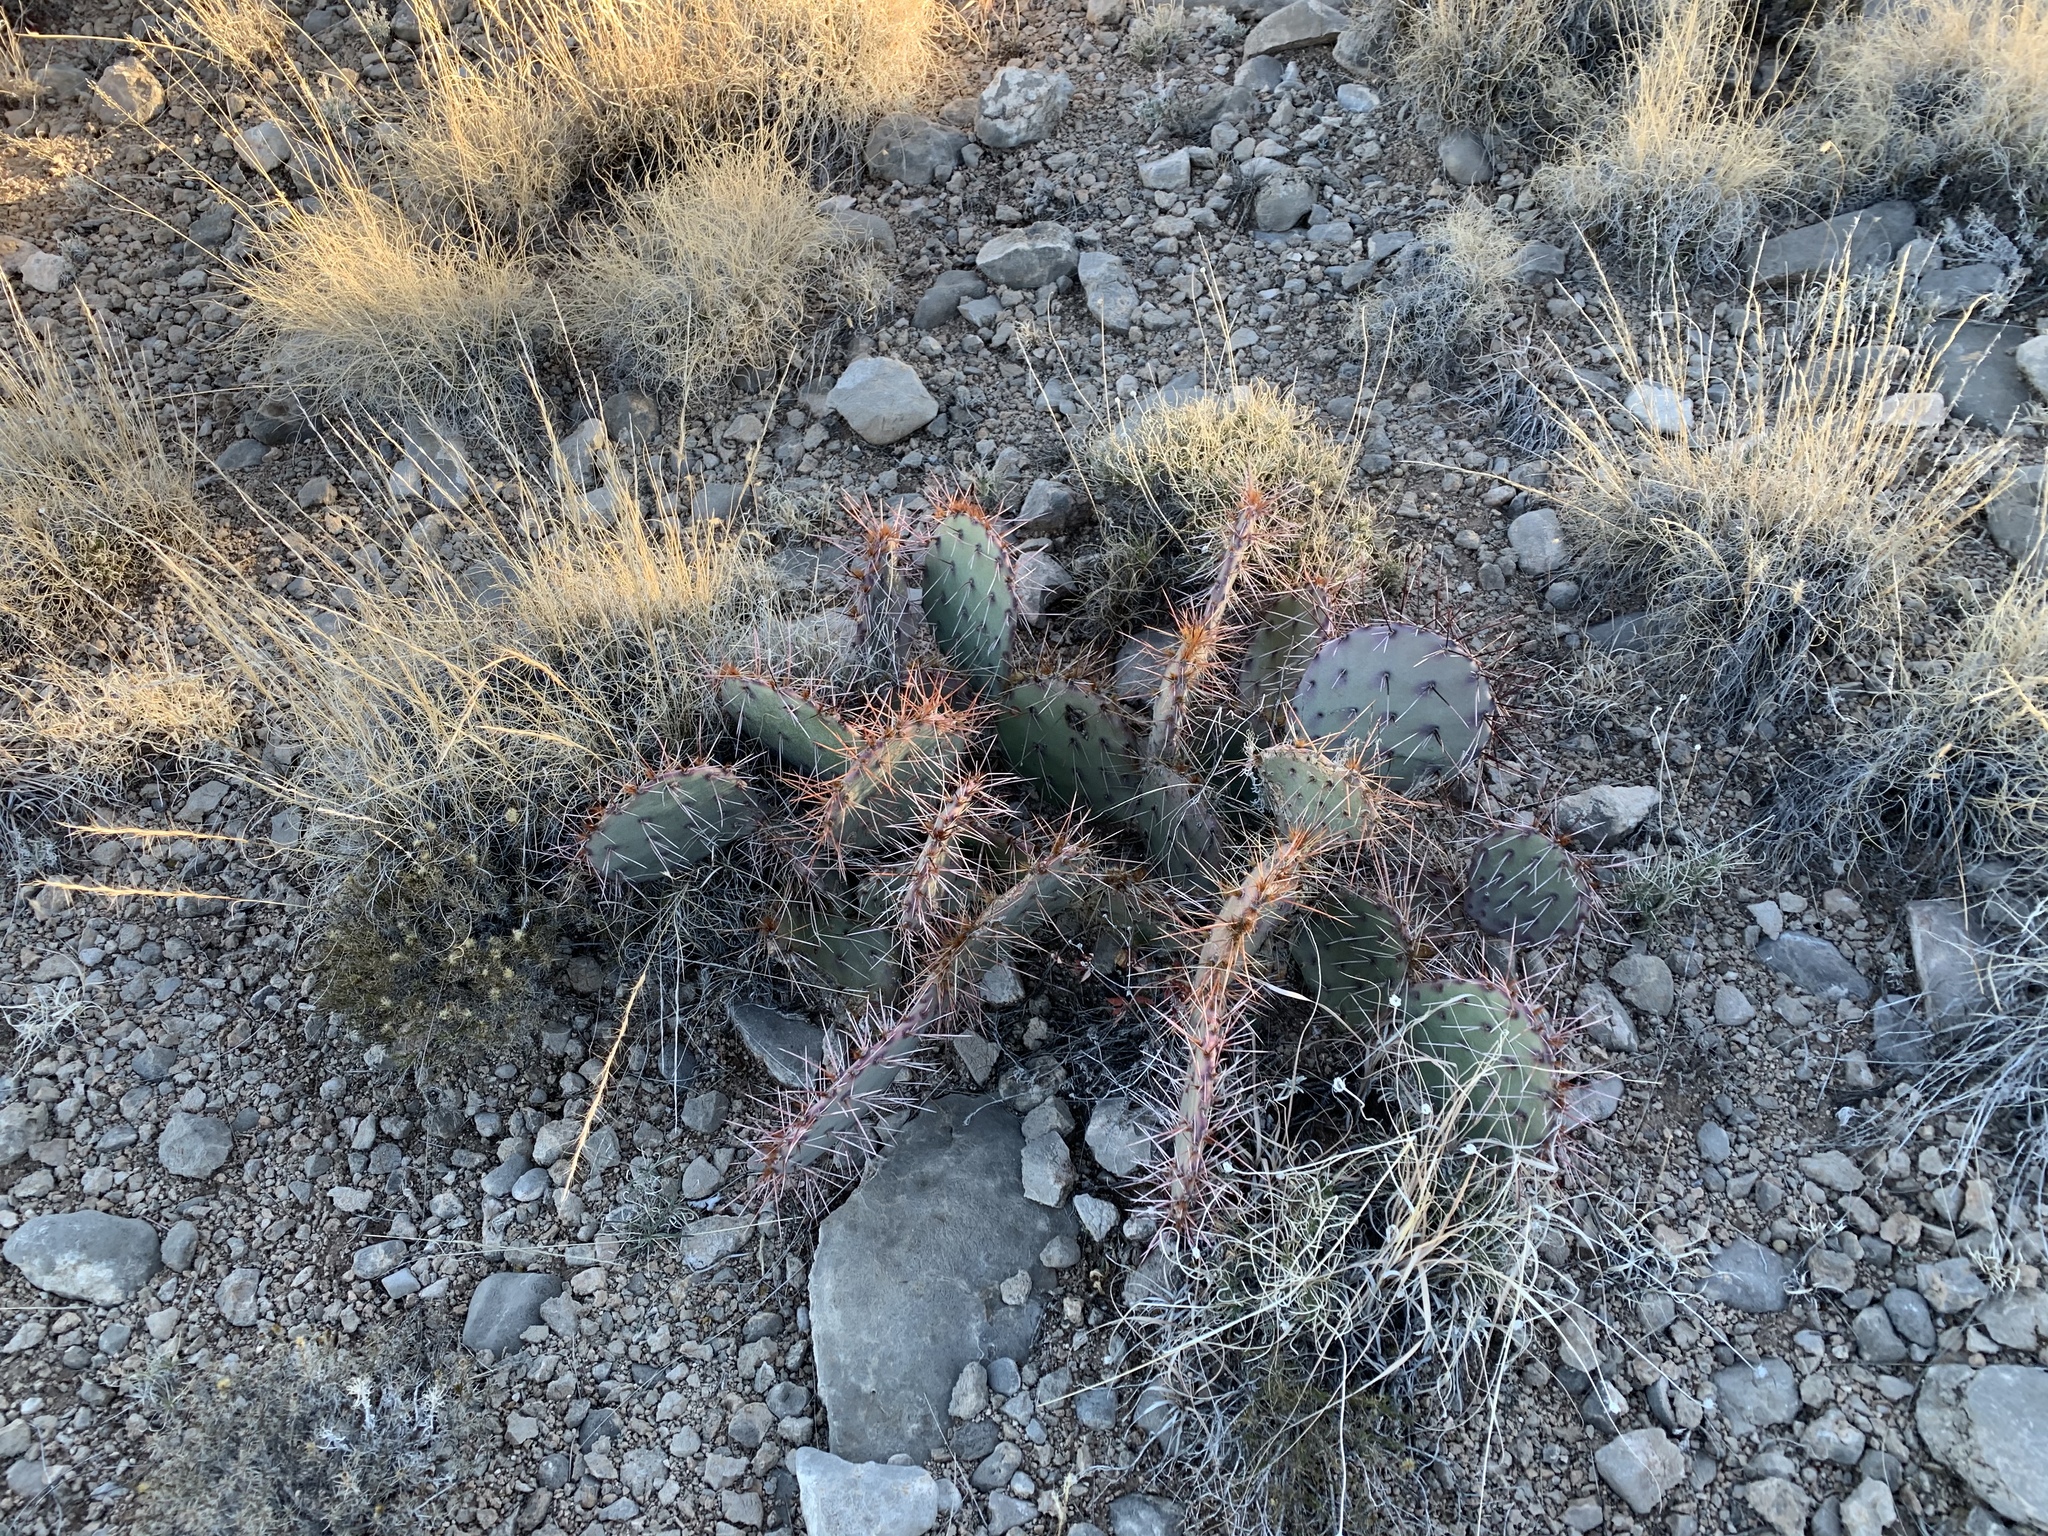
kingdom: Plantae
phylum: Tracheophyta
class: Magnoliopsida
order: Caryophyllales
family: Cactaceae
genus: Opuntia
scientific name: Opuntia phaeacantha
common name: New mexico prickly-pear
